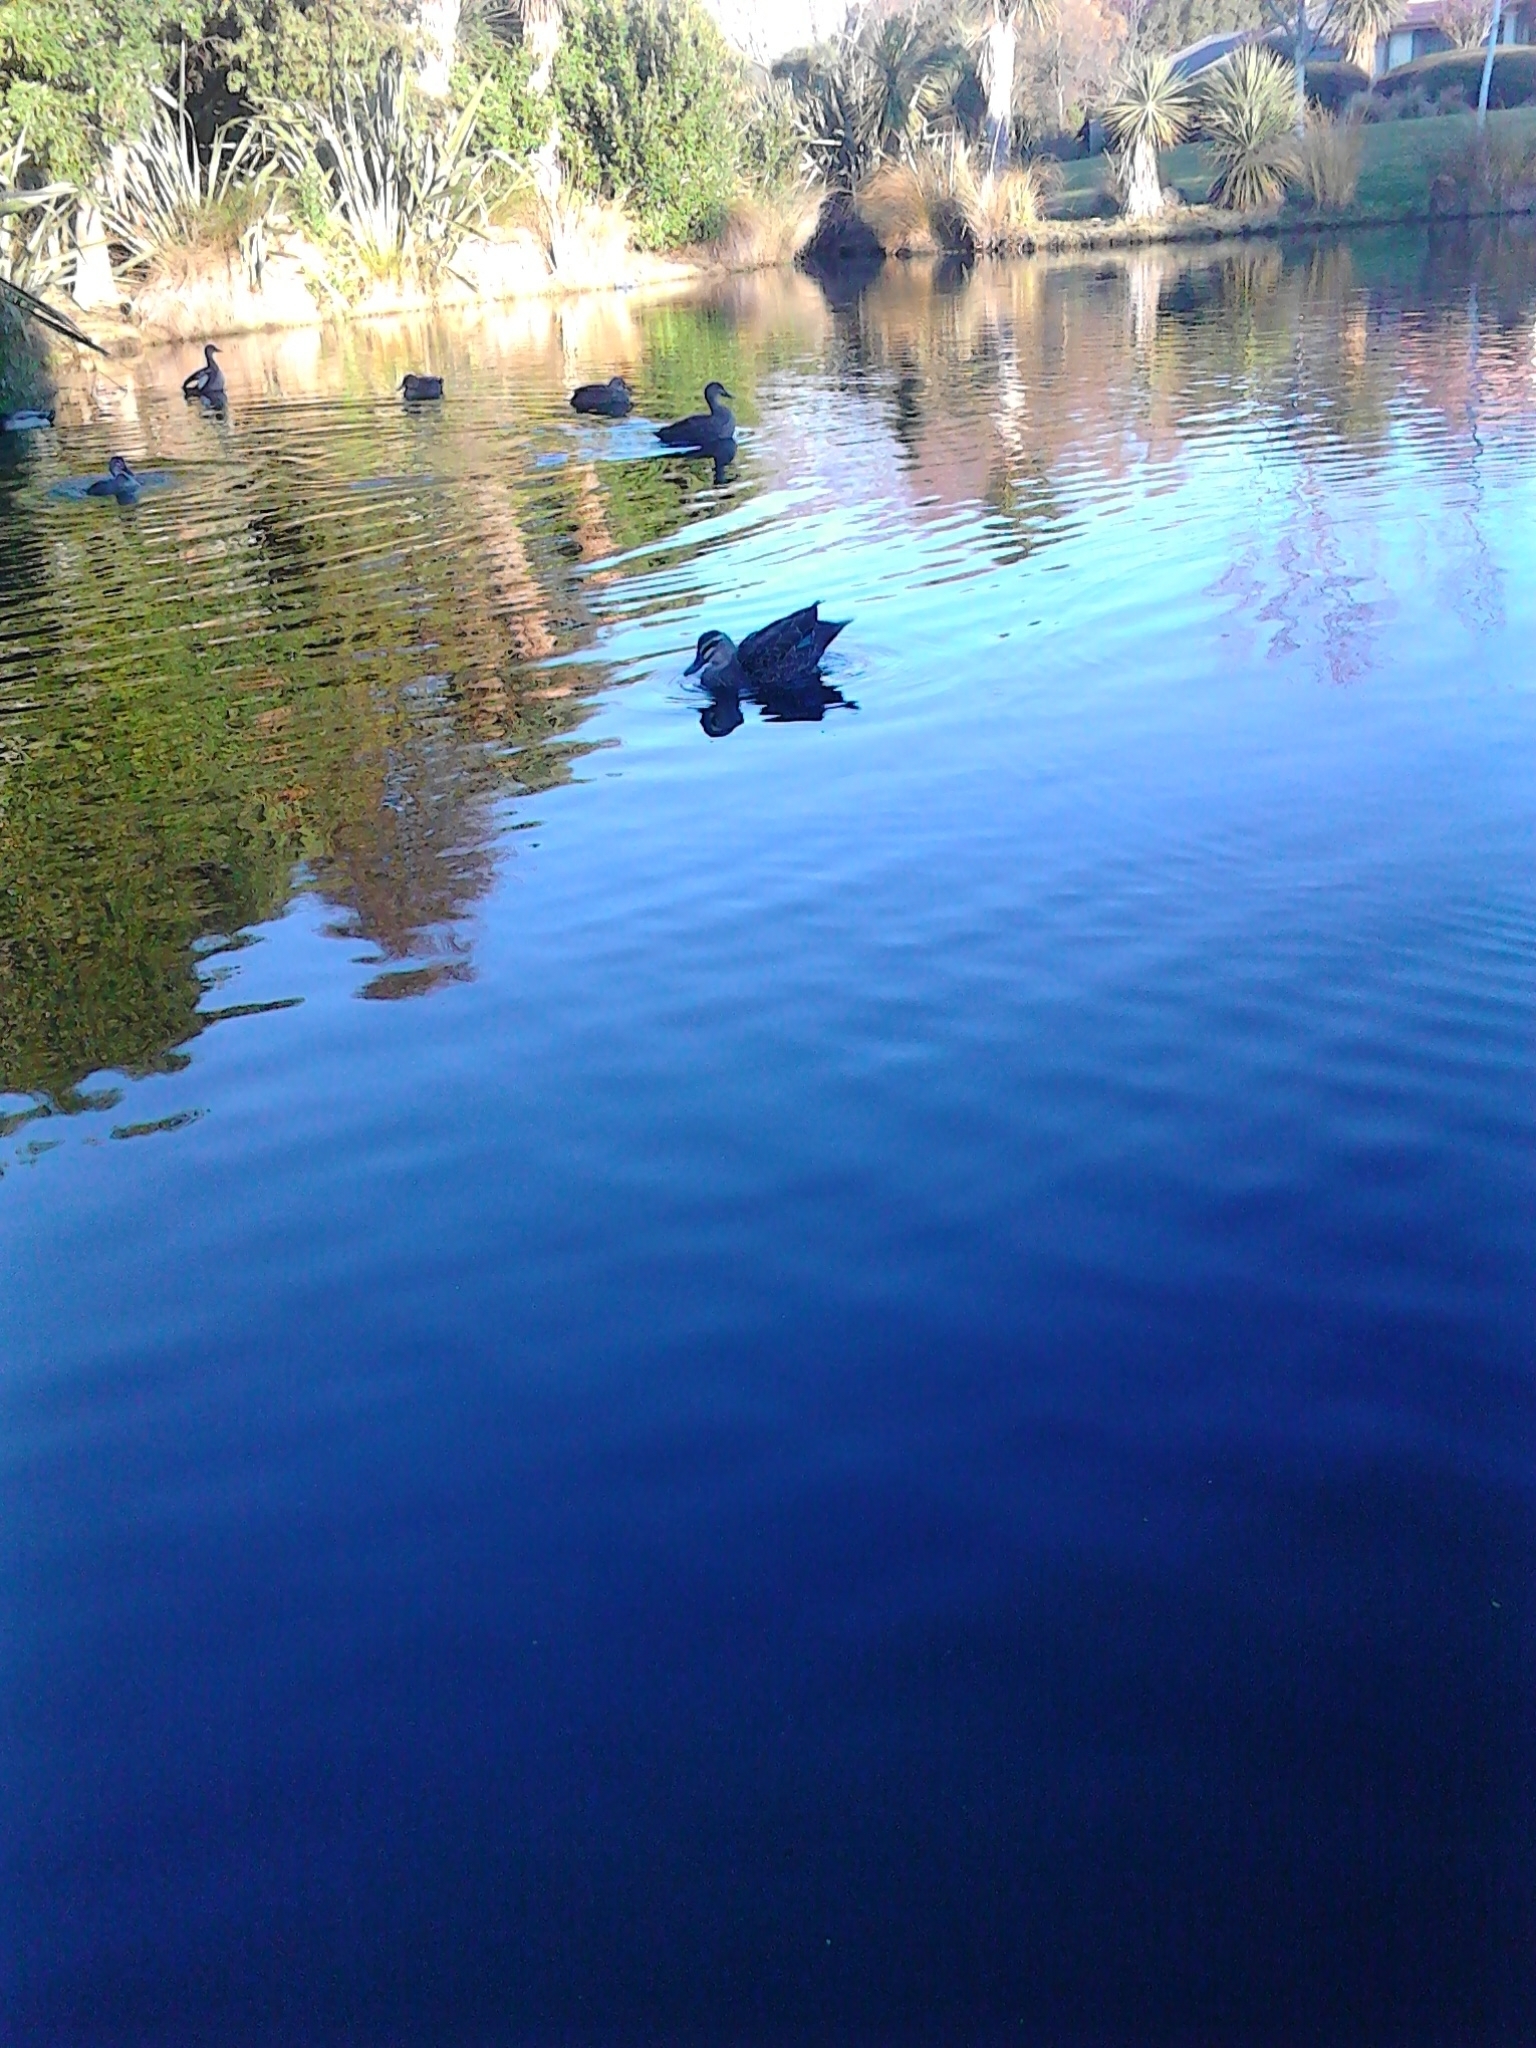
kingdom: Animalia
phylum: Chordata
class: Aves
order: Anseriformes
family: Anatidae
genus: Anas
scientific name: Anas
